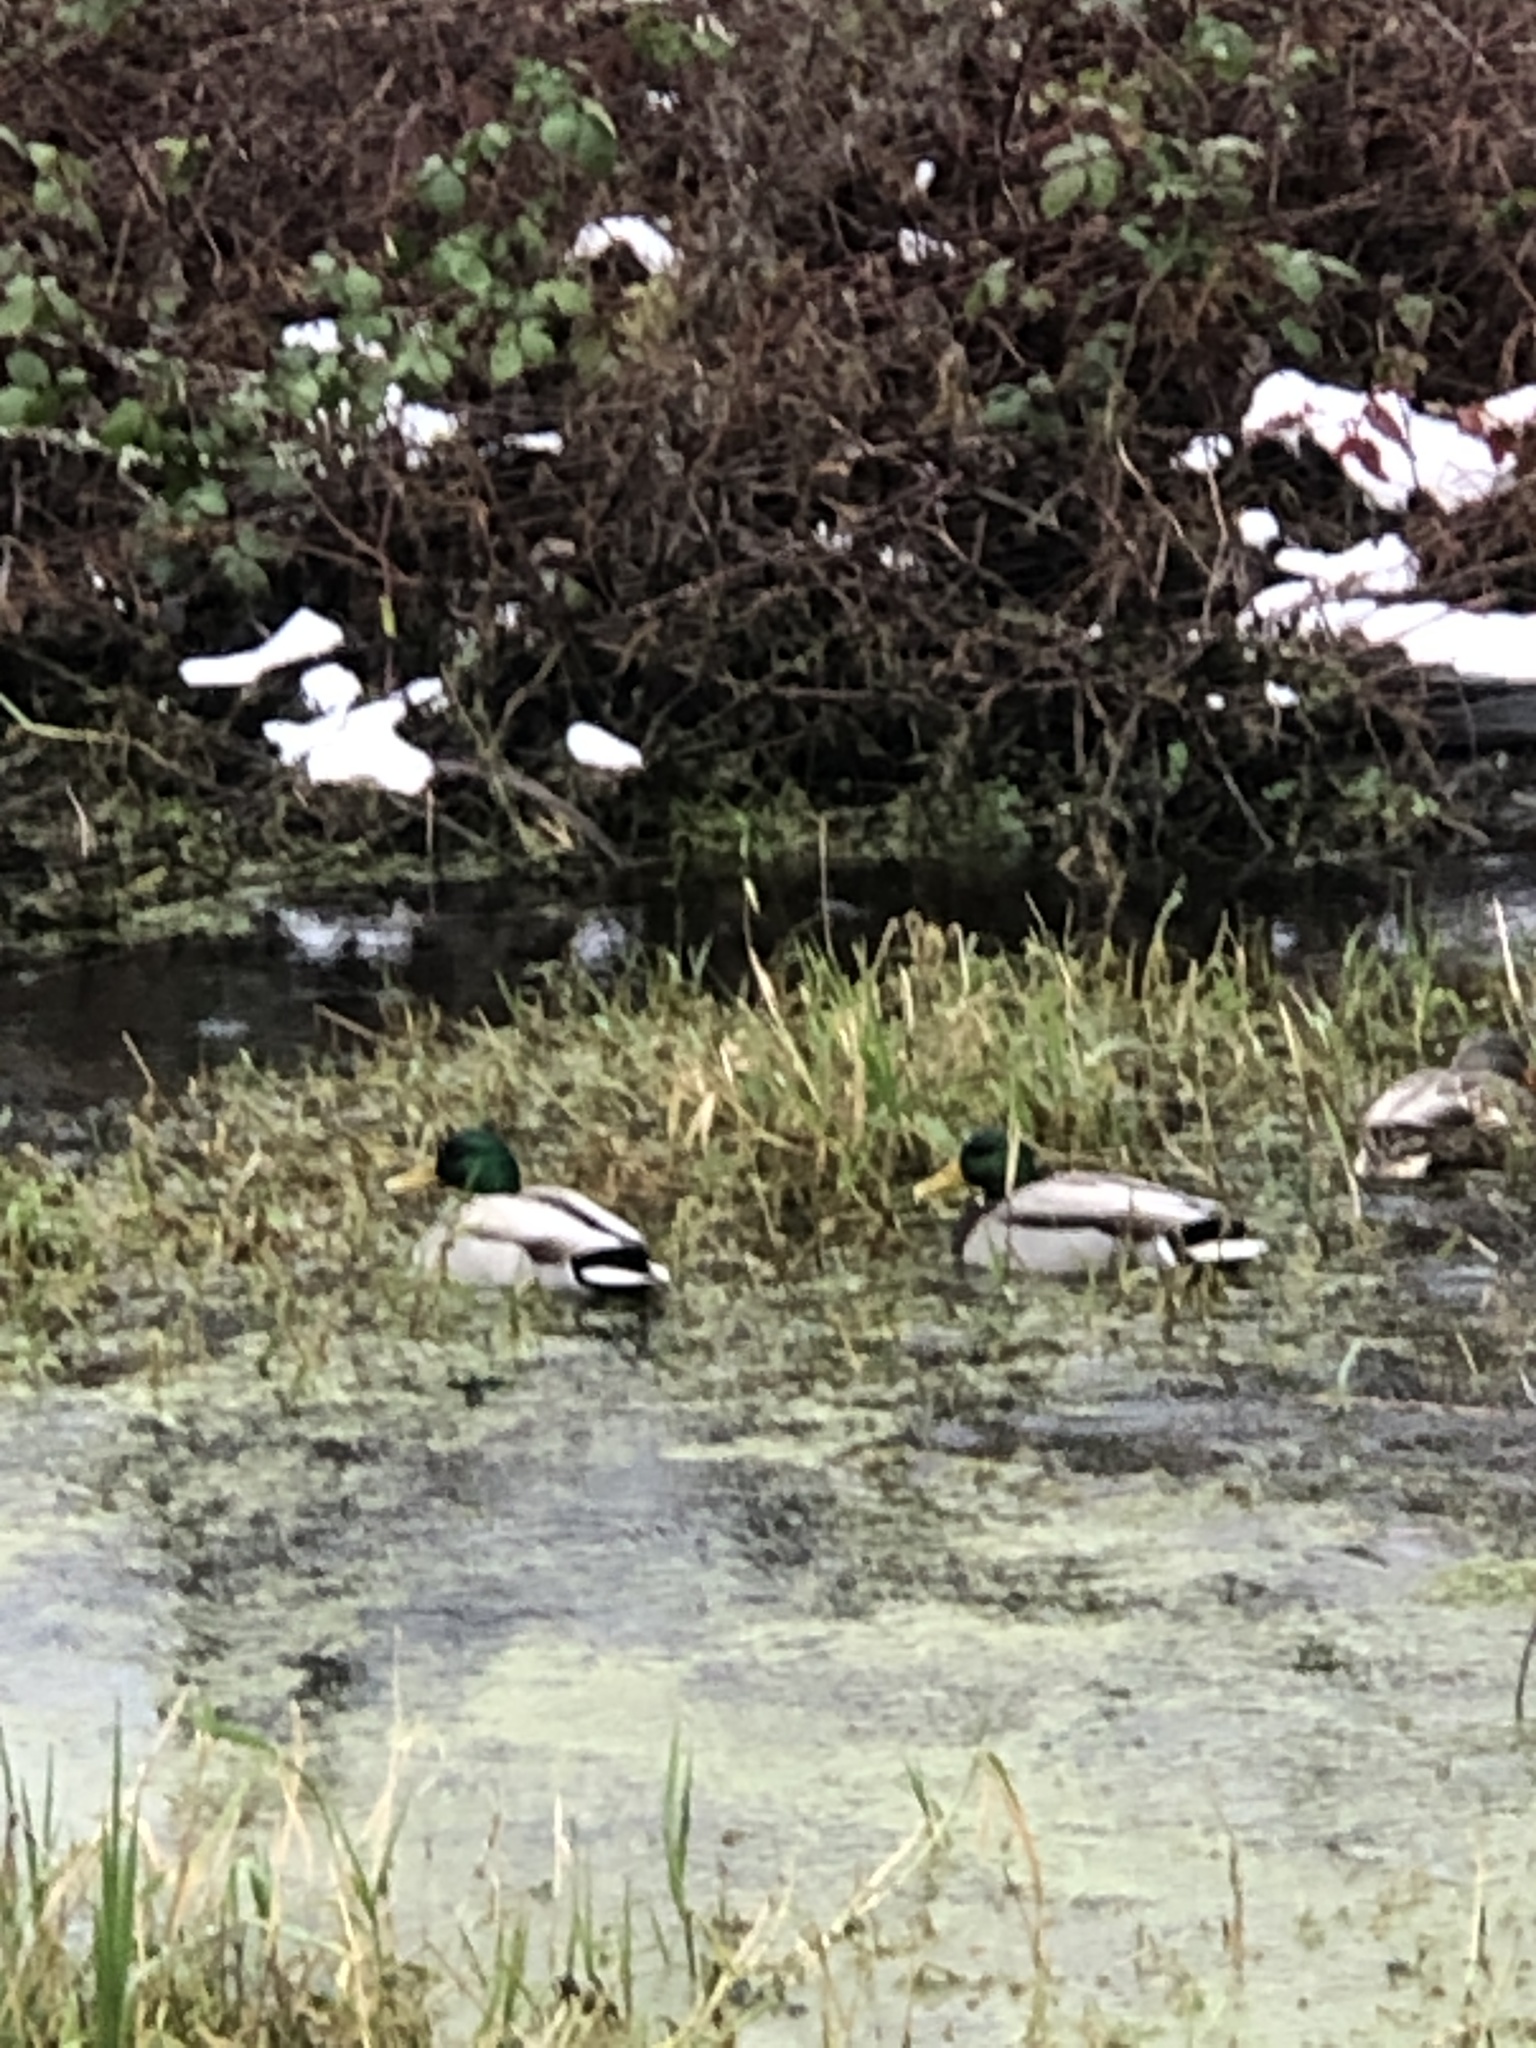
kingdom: Animalia
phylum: Chordata
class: Aves
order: Anseriformes
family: Anatidae
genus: Anas
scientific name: Anas platyrhynchos
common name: Mallard
